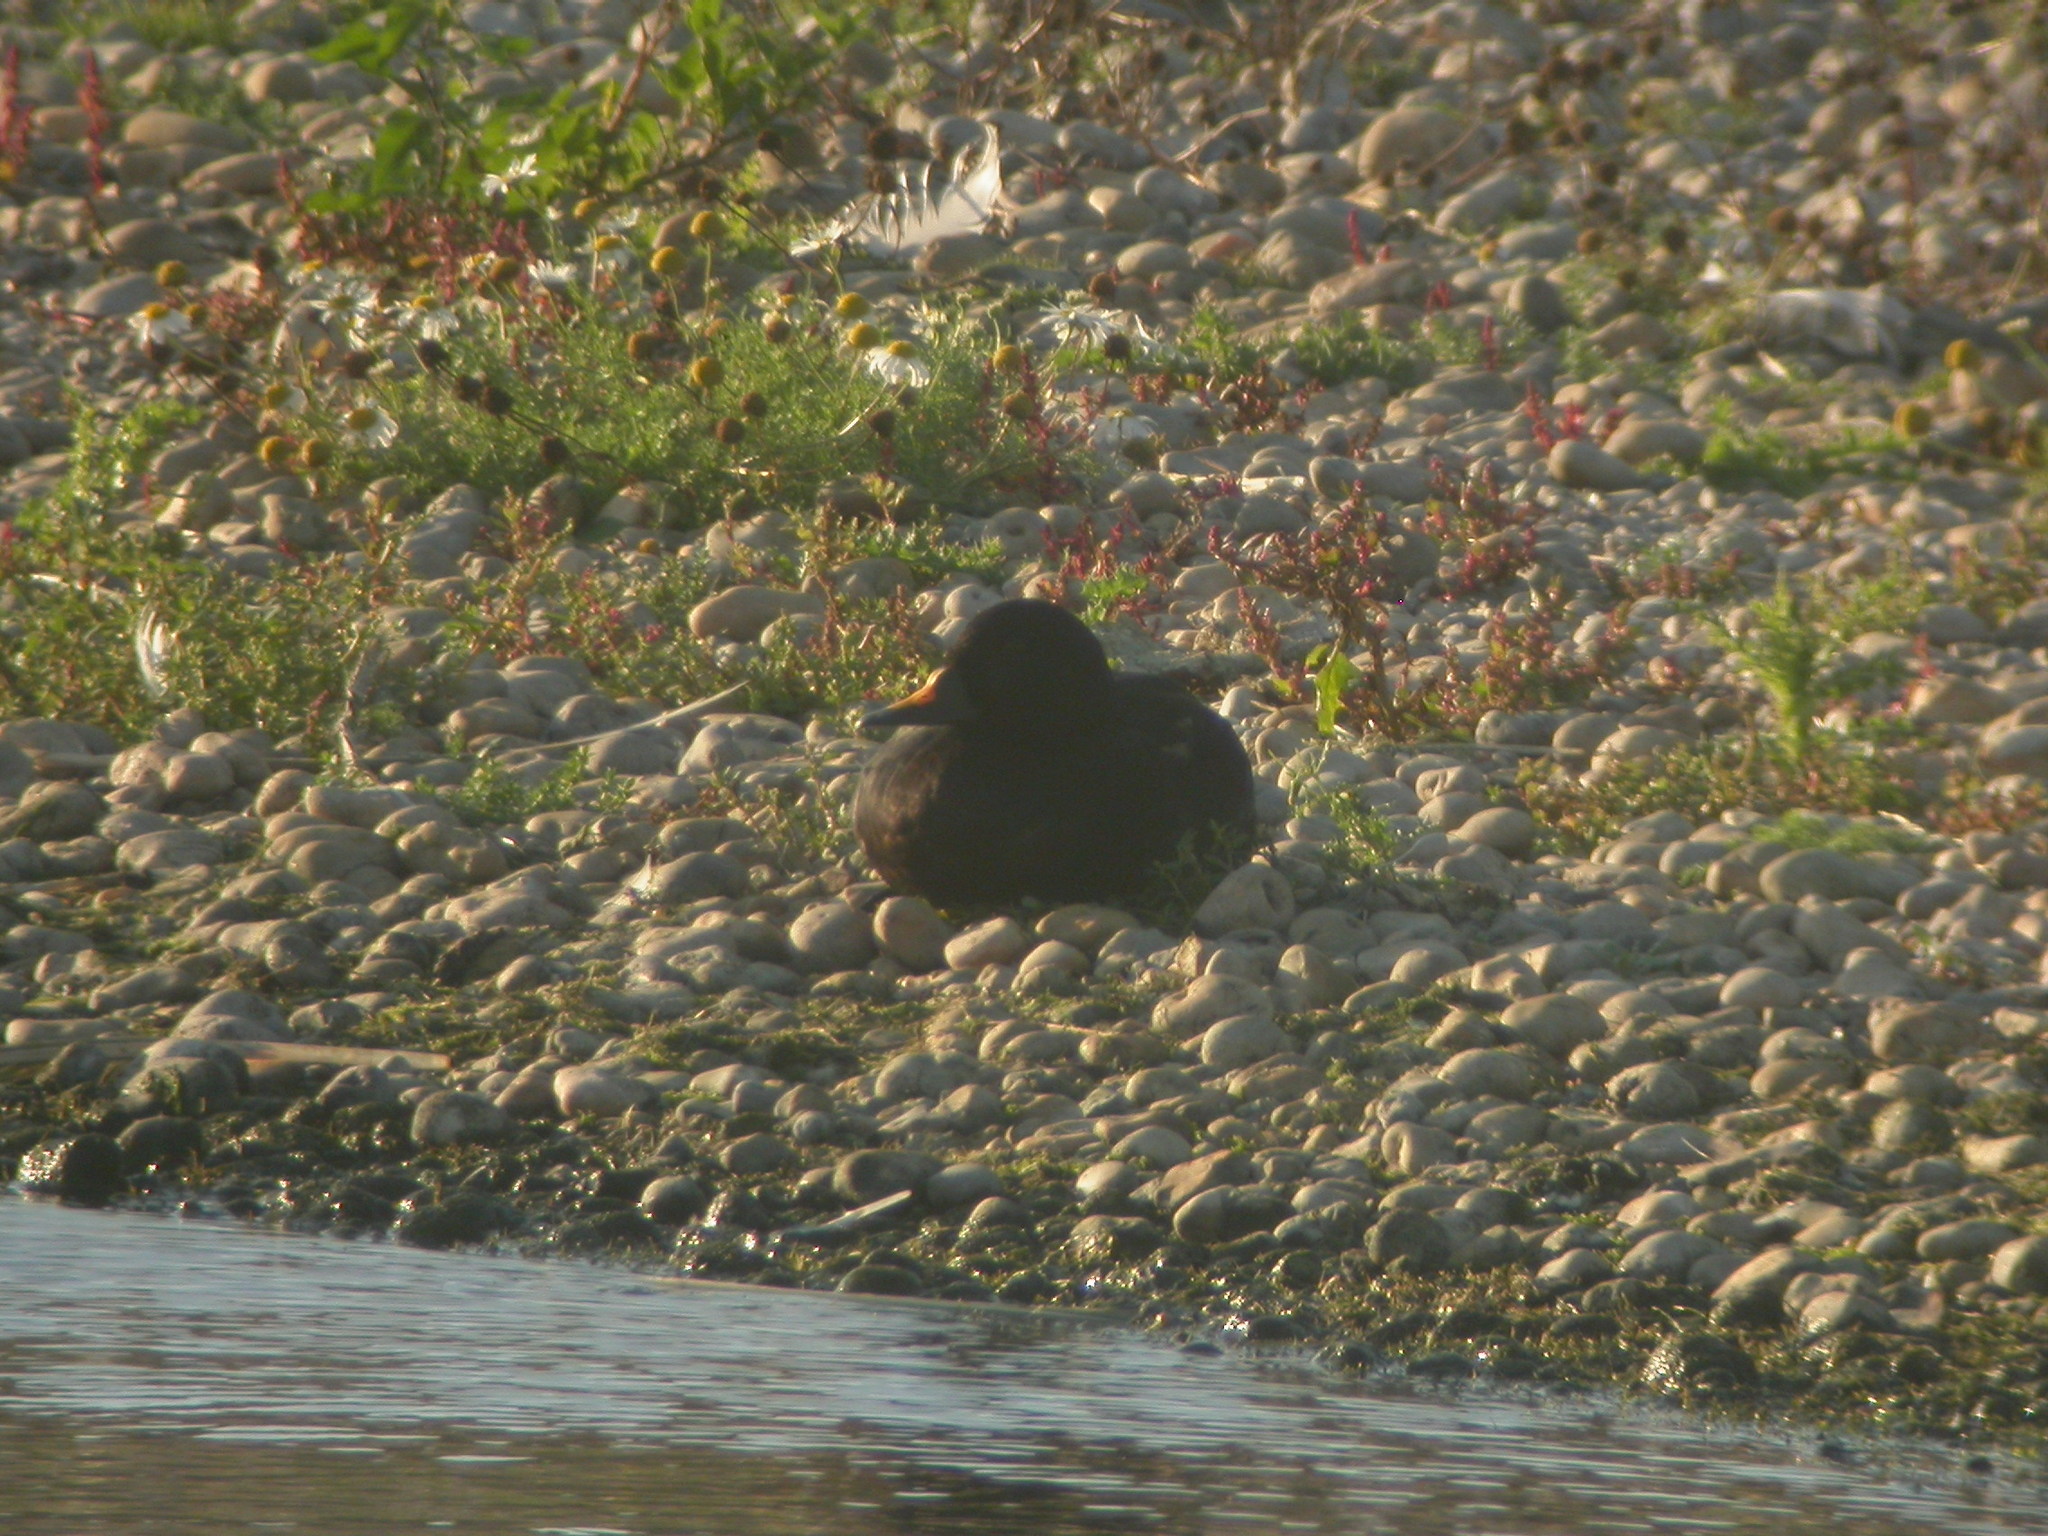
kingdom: Animalia
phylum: Chordata
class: Aves
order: Anseriformes
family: Anatidae
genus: Melanitta
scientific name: Melanitta nigra
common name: Common scoter
